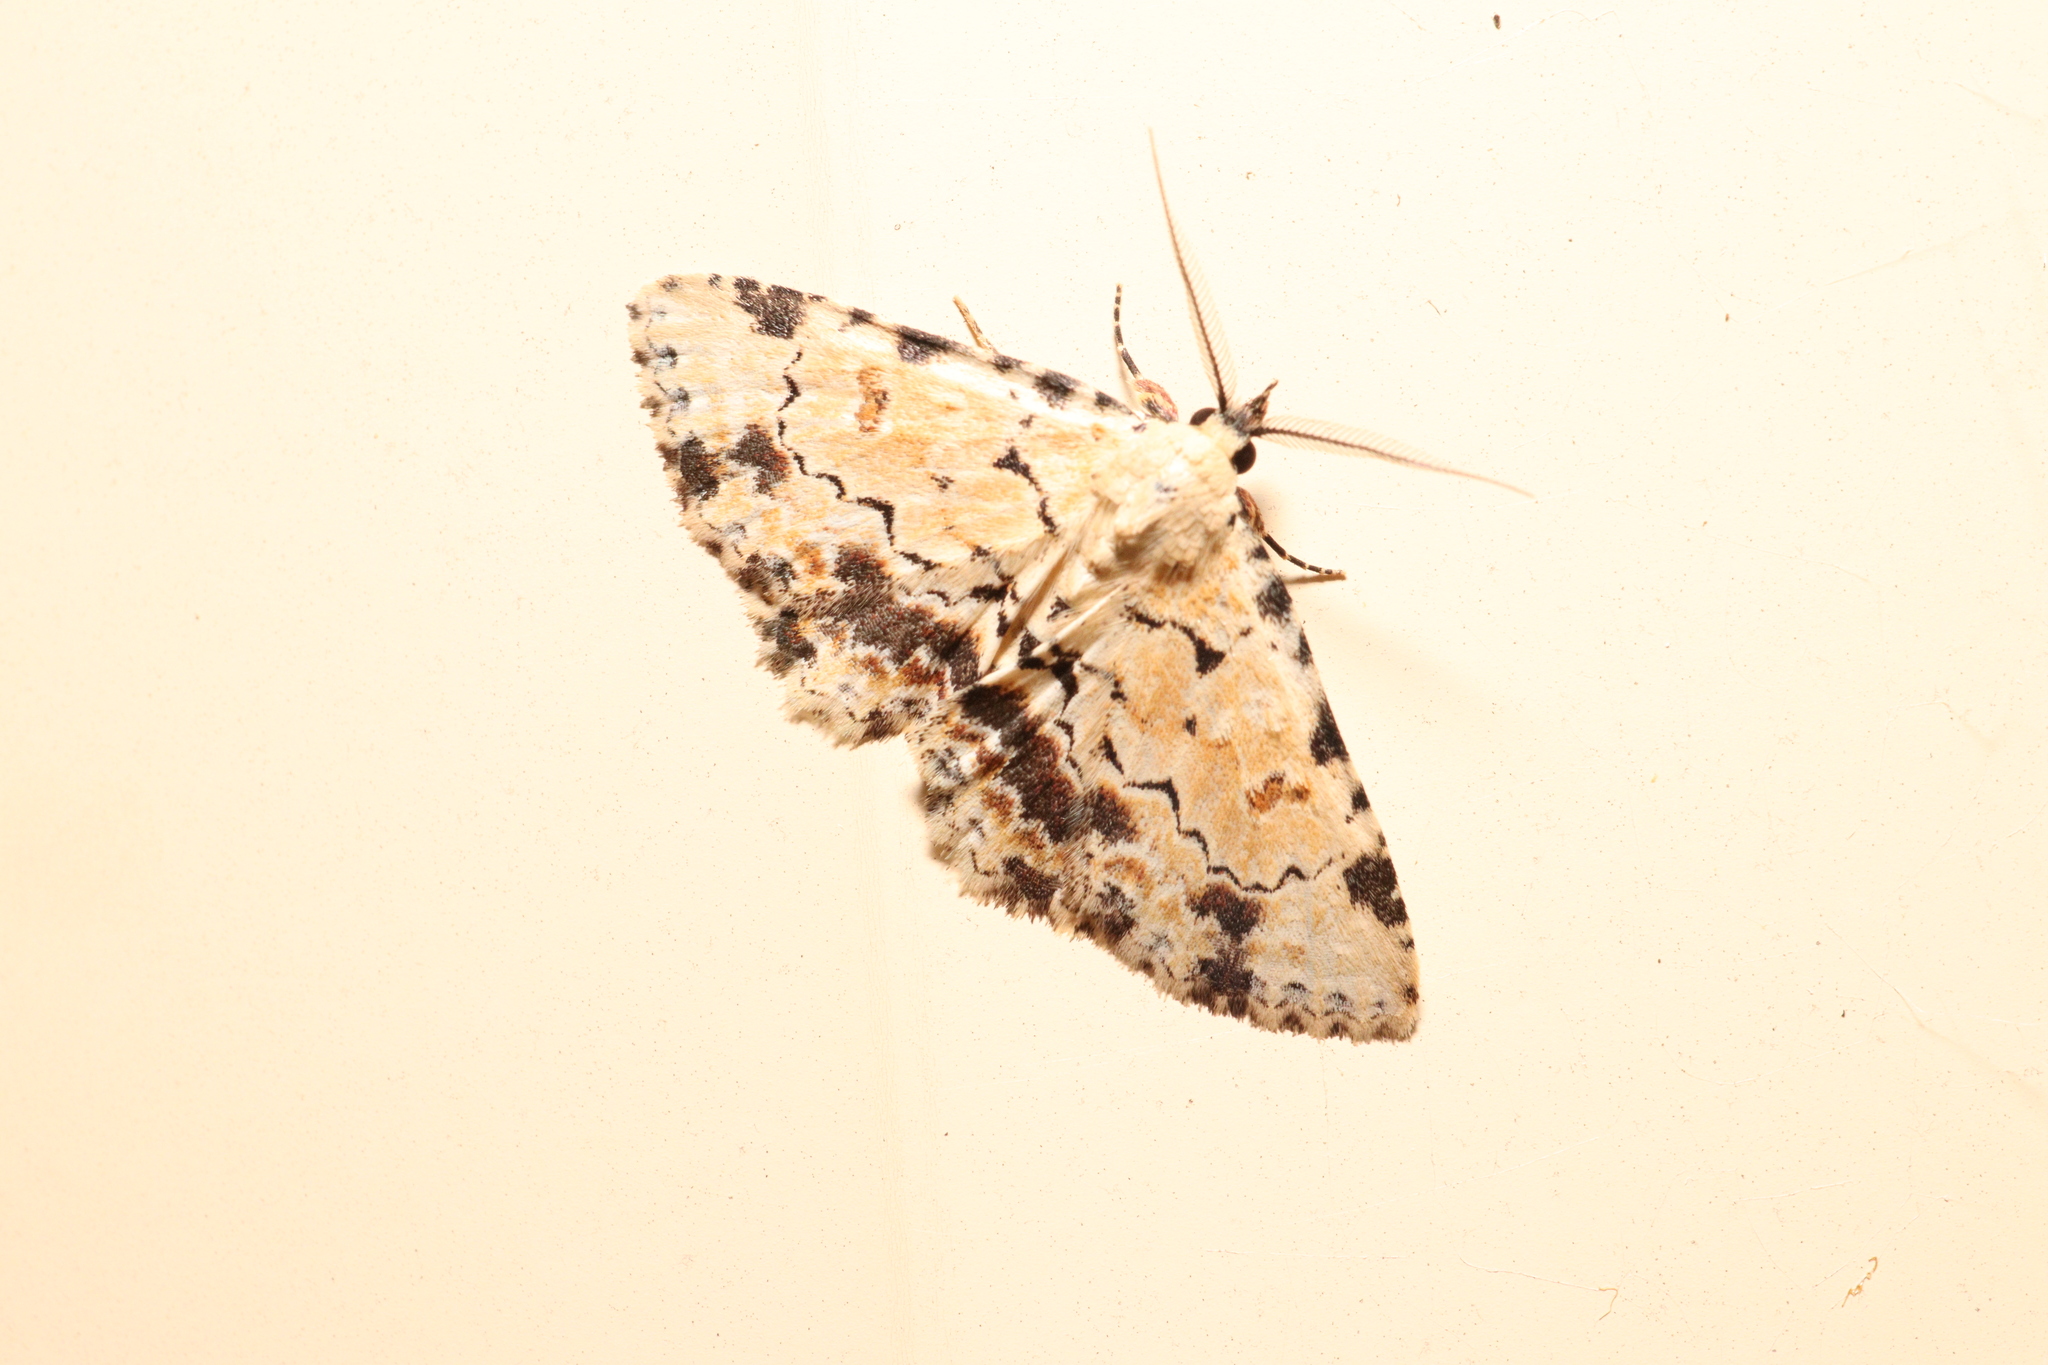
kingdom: Animalia
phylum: Arthropoda
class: Insecta
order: Lepidoptera
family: Erebidae
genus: Sandava
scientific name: Sandava scitisignata
